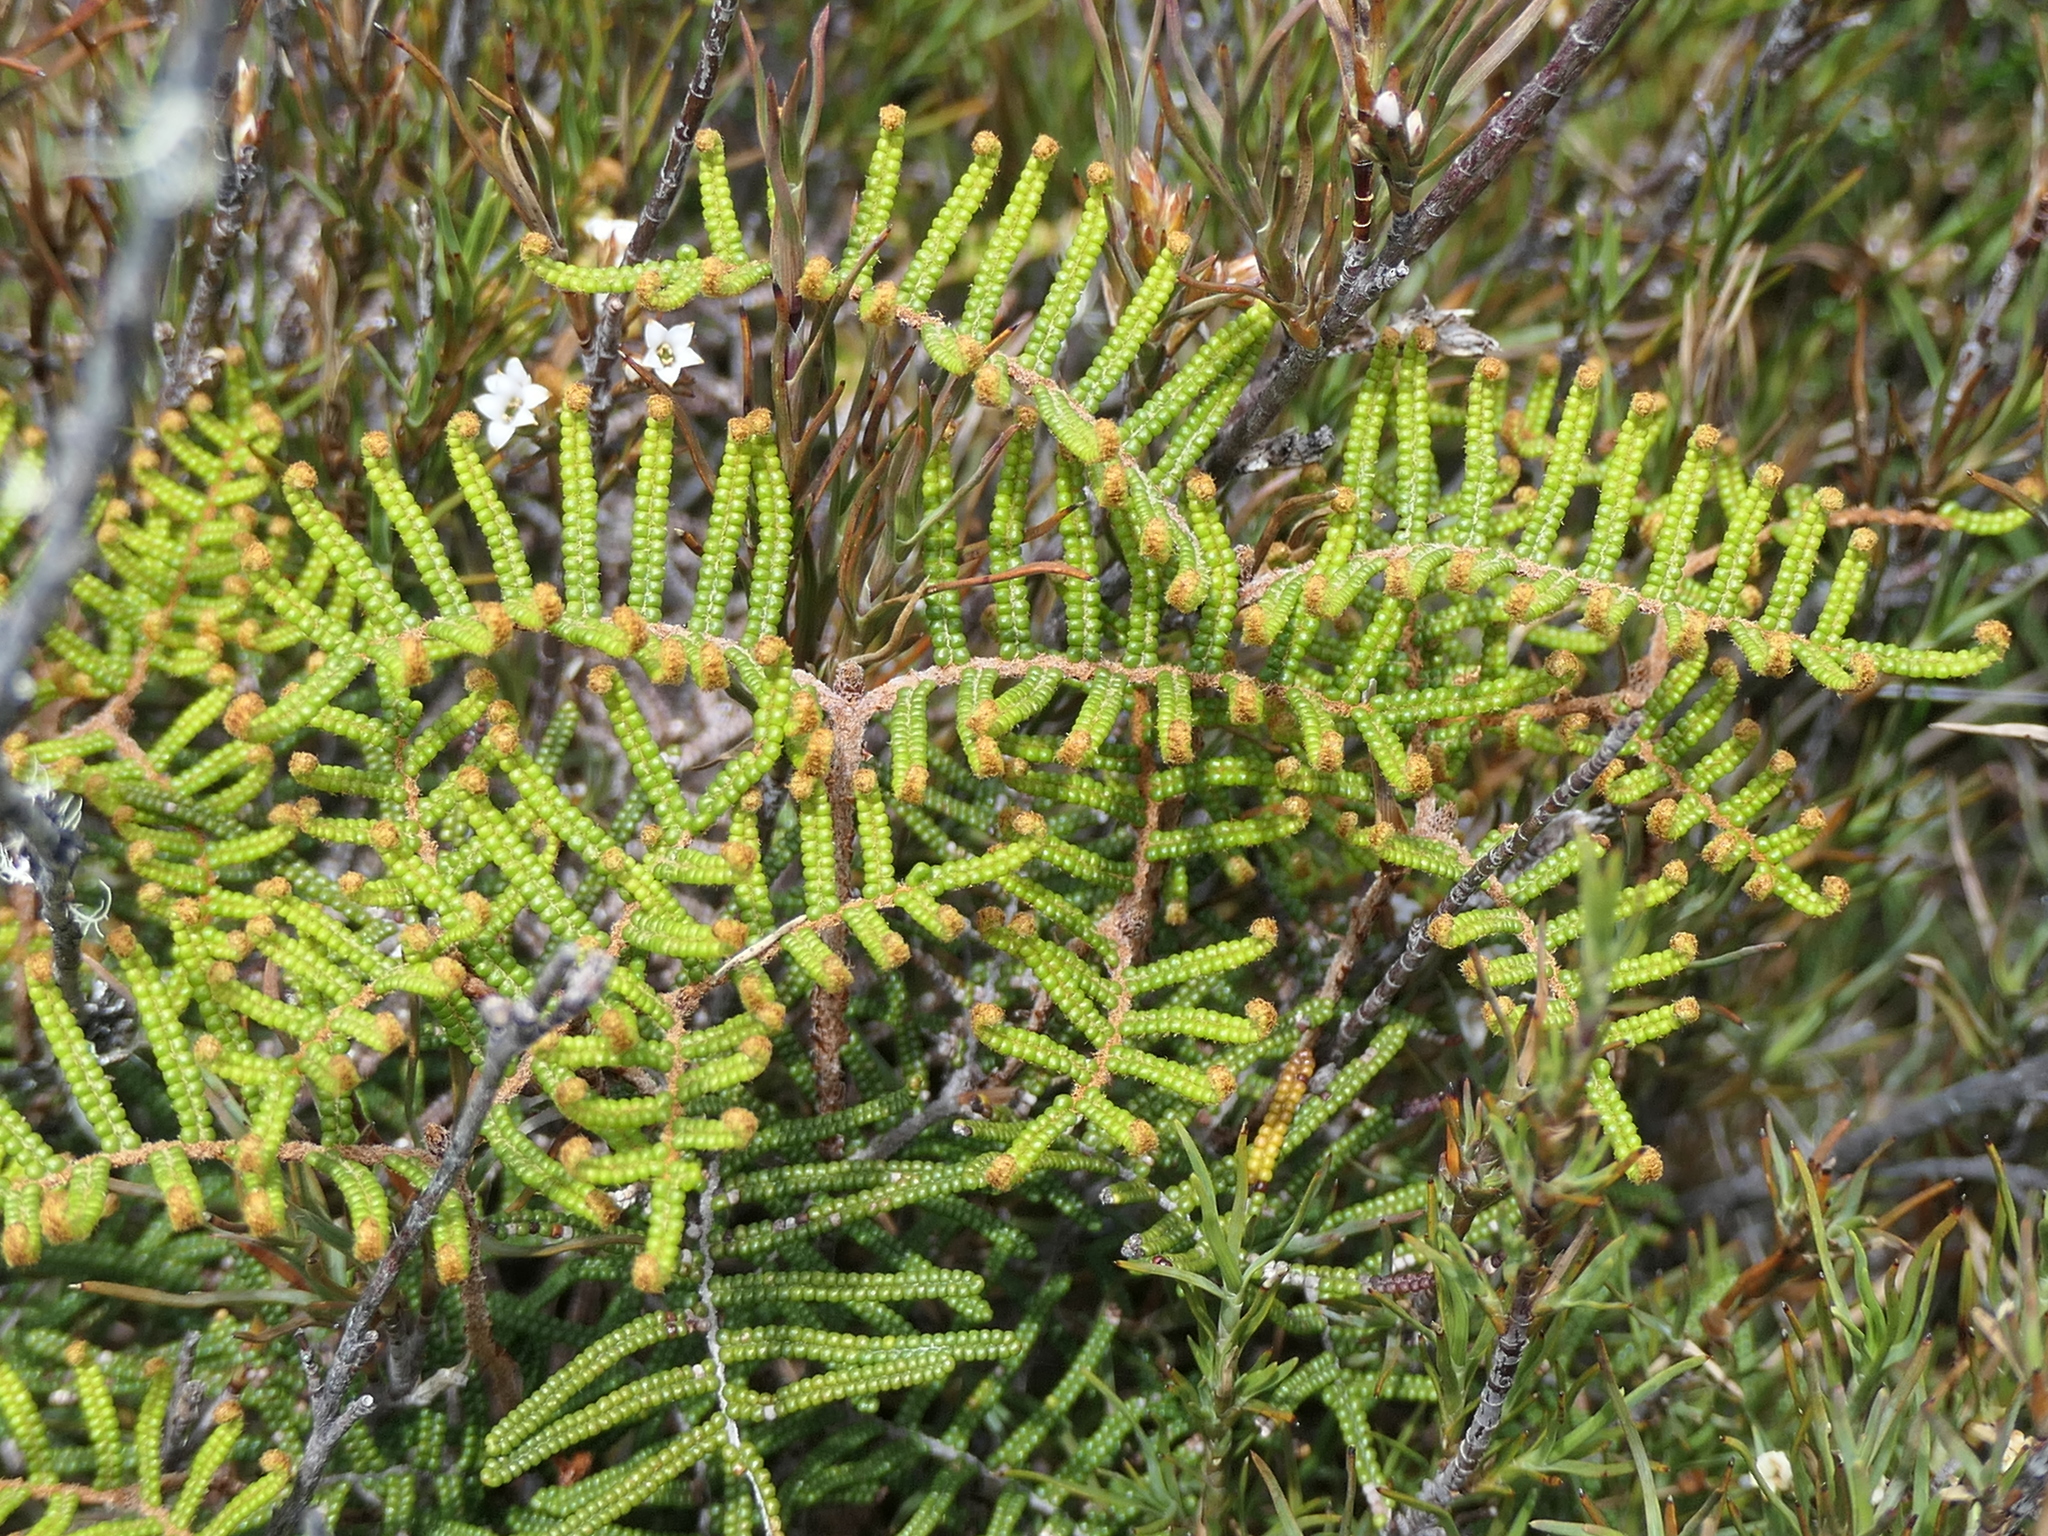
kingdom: Plantae
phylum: Tracheophyta
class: Polypodiopsida
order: Gleicheniales
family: Gleicheniaceae
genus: Gleichenia
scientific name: Gleichenia alpina
